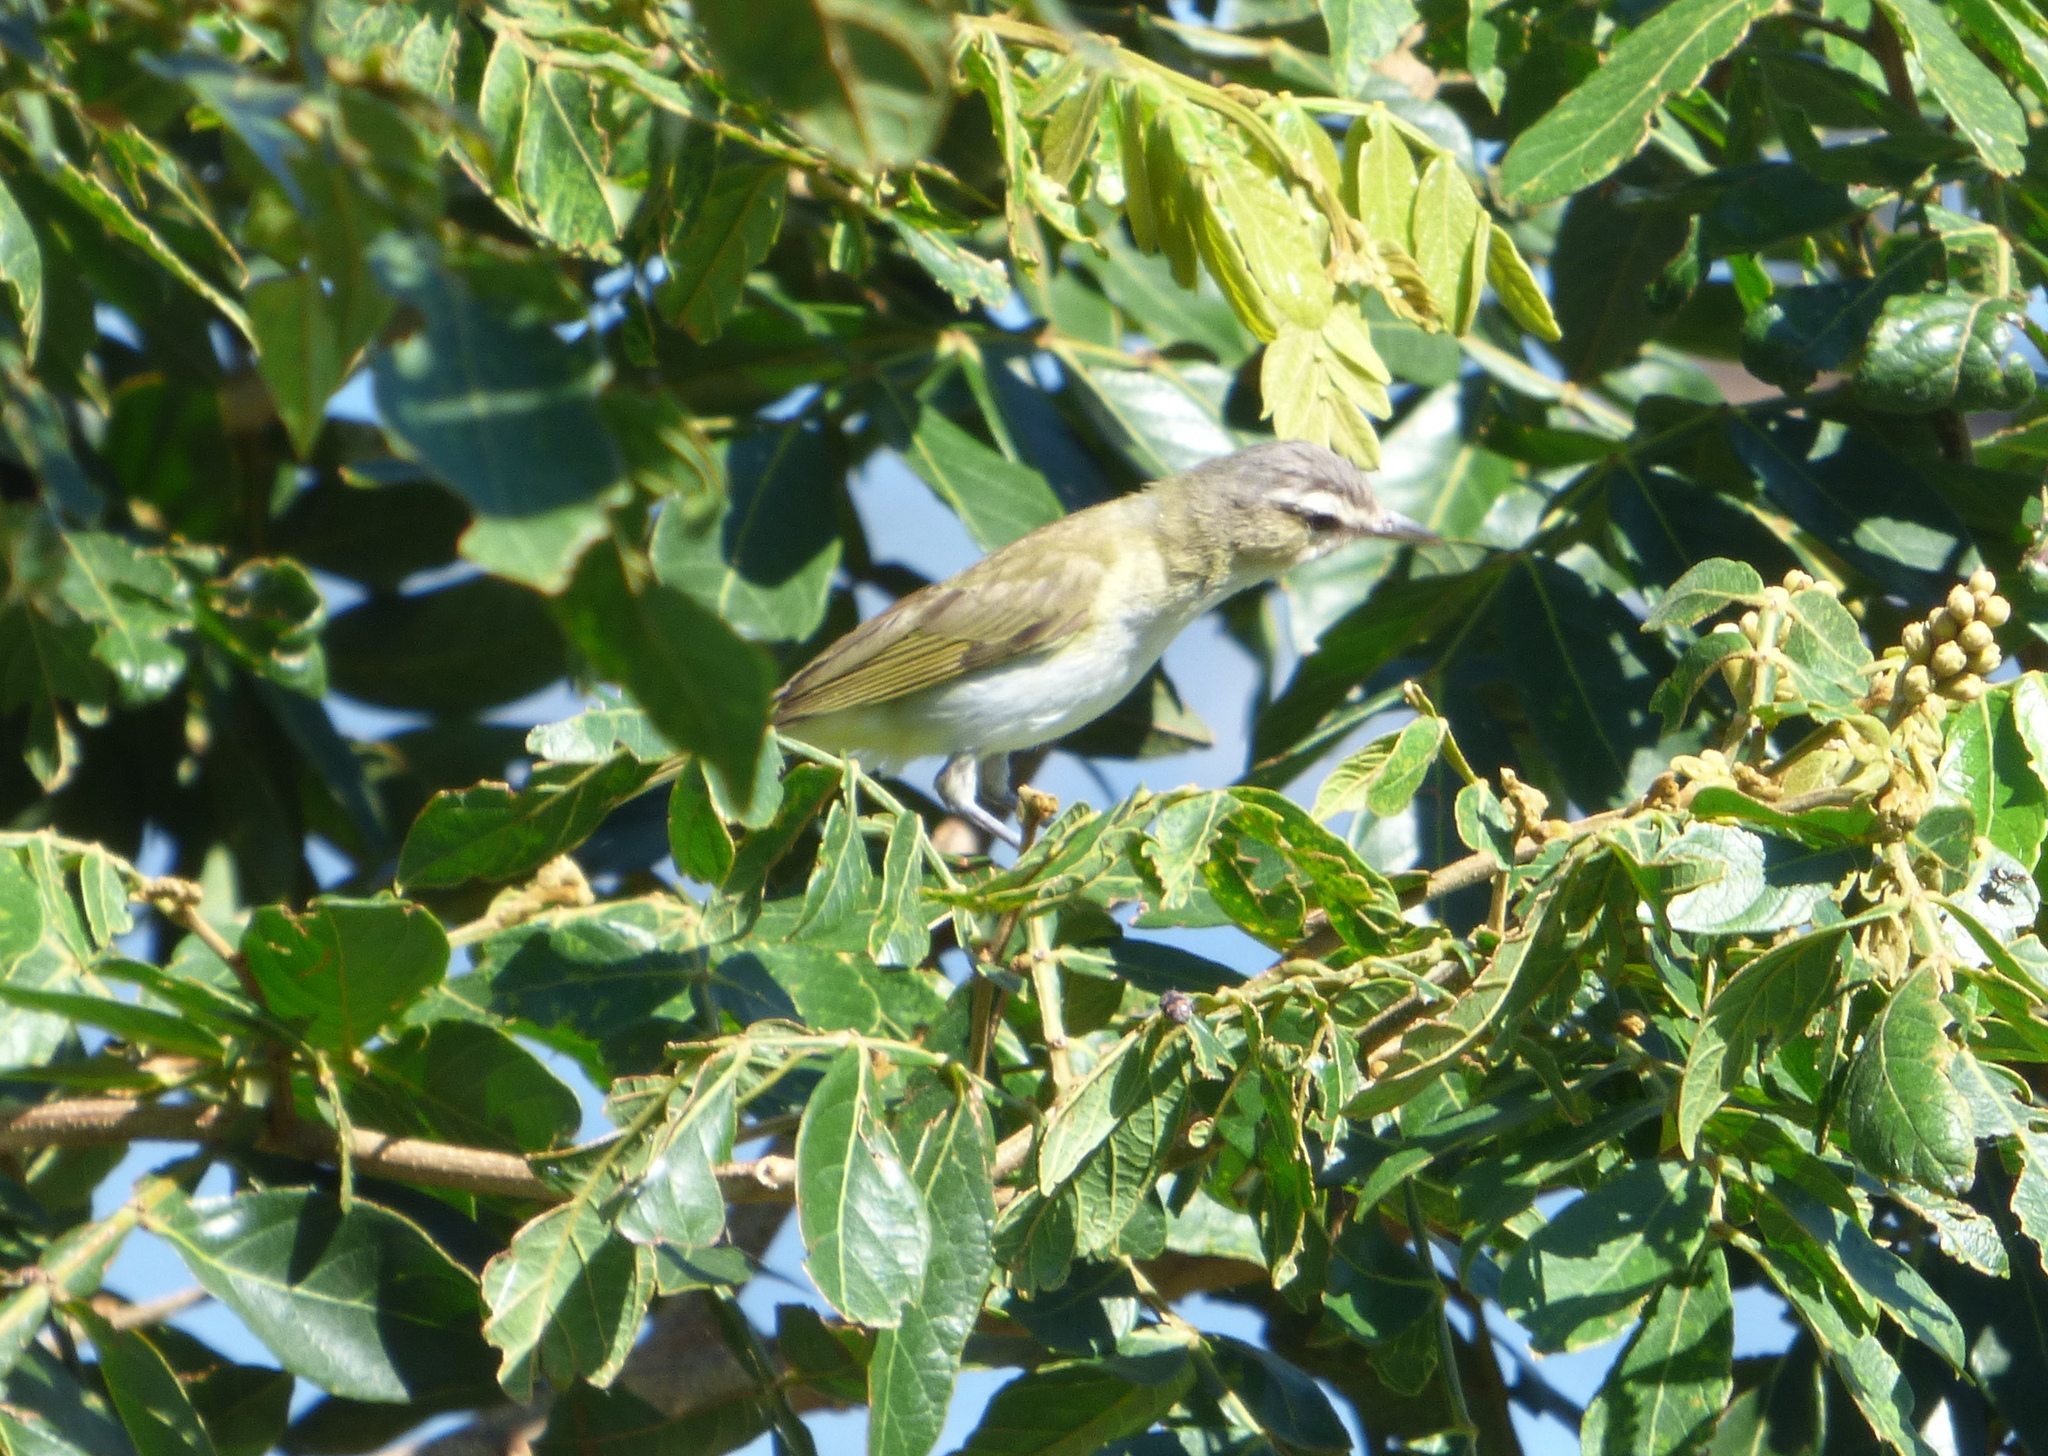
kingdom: Animalia
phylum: Chordata
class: Aves
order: Passeriformes
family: Vireonidae
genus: Vireo
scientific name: Vireo olivaceus
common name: Red-eyed vireo
